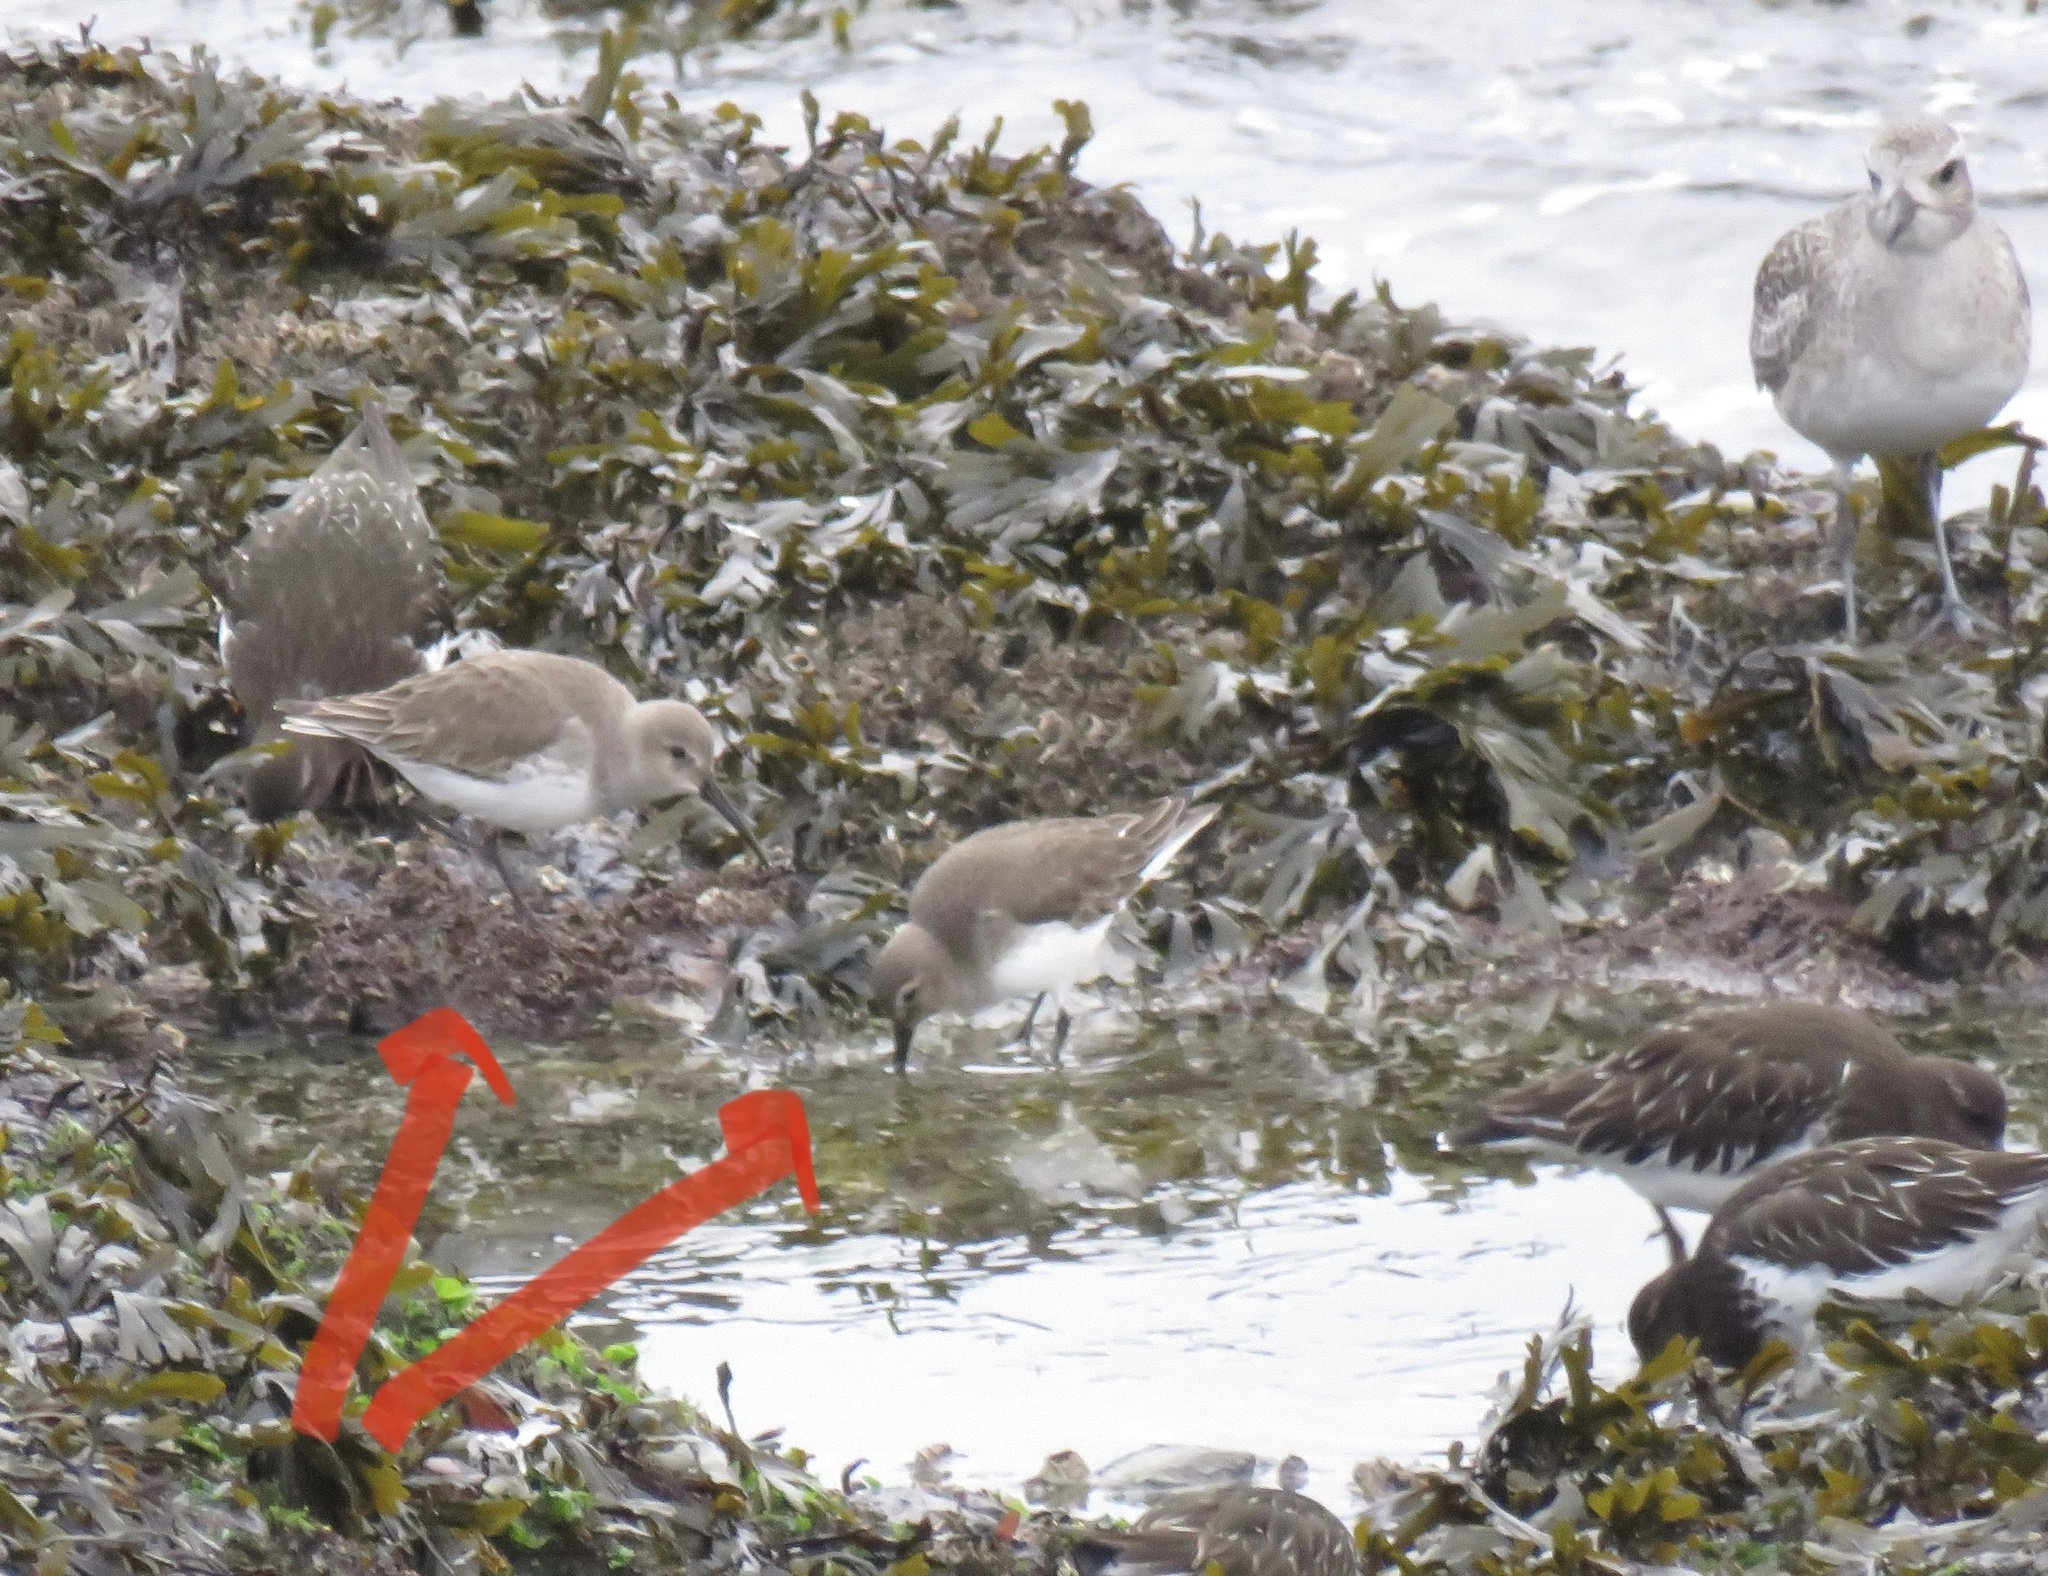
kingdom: Animalia
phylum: Chordata
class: Aves
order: Charadriiformes
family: Scolopacidae
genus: Calidris
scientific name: Calidris alpina
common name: Dunlin
